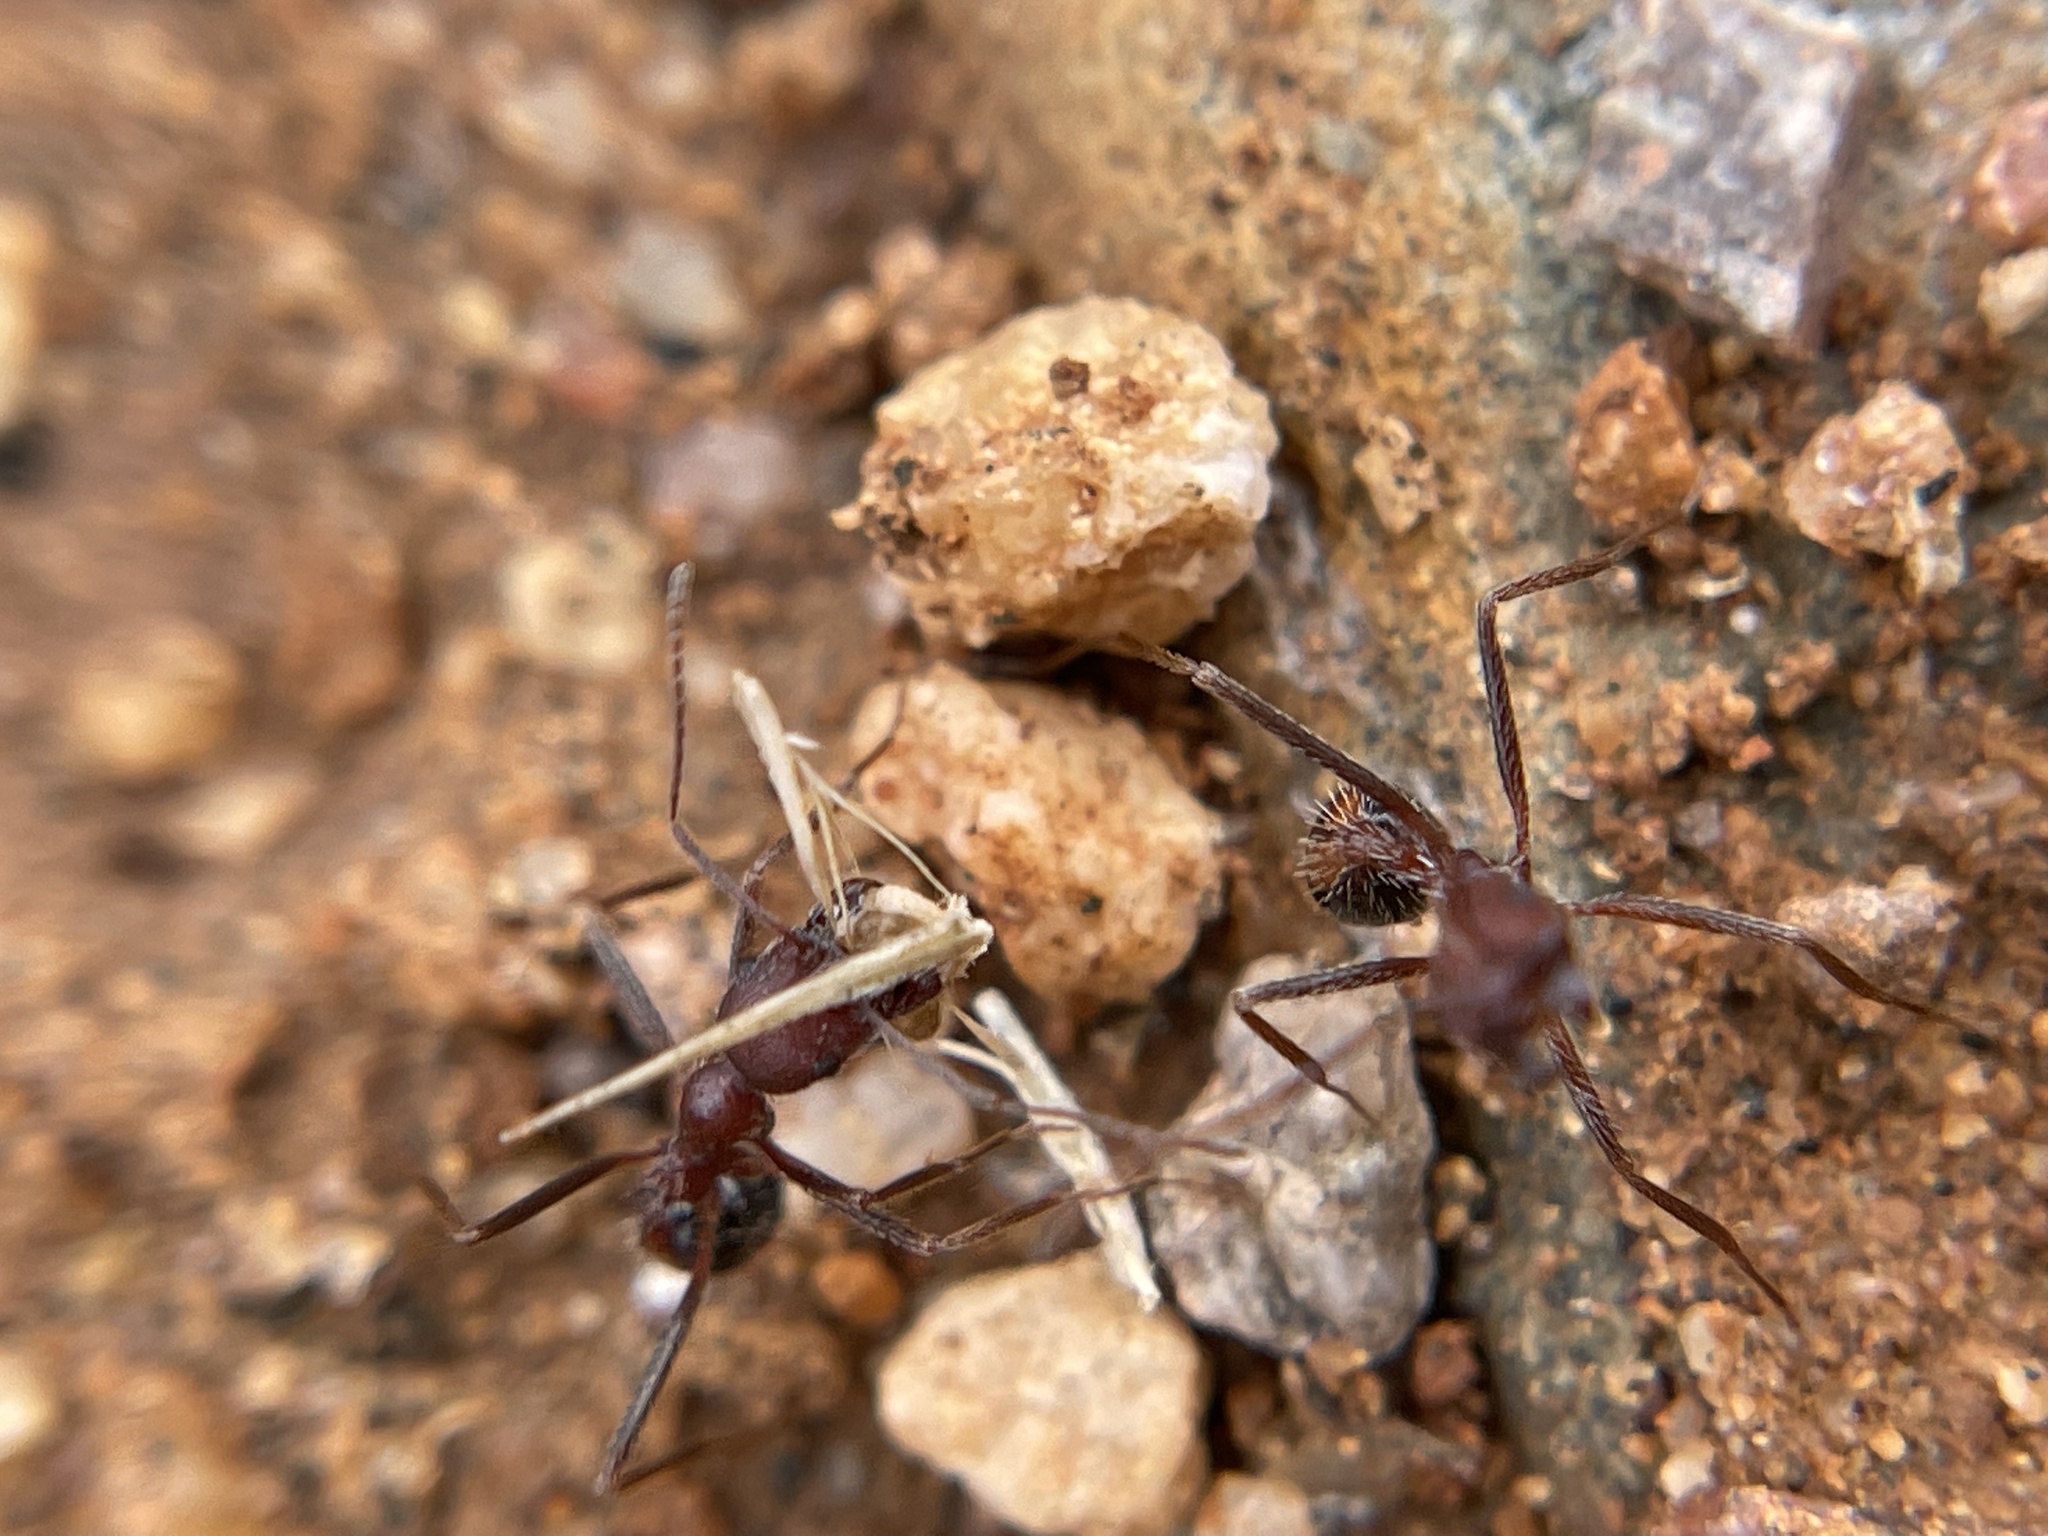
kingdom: Animalia
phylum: Arthropoda
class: Insecta
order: Hymenoptera
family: Formicidae
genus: Novomessor
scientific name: Novomessor albisetosa
